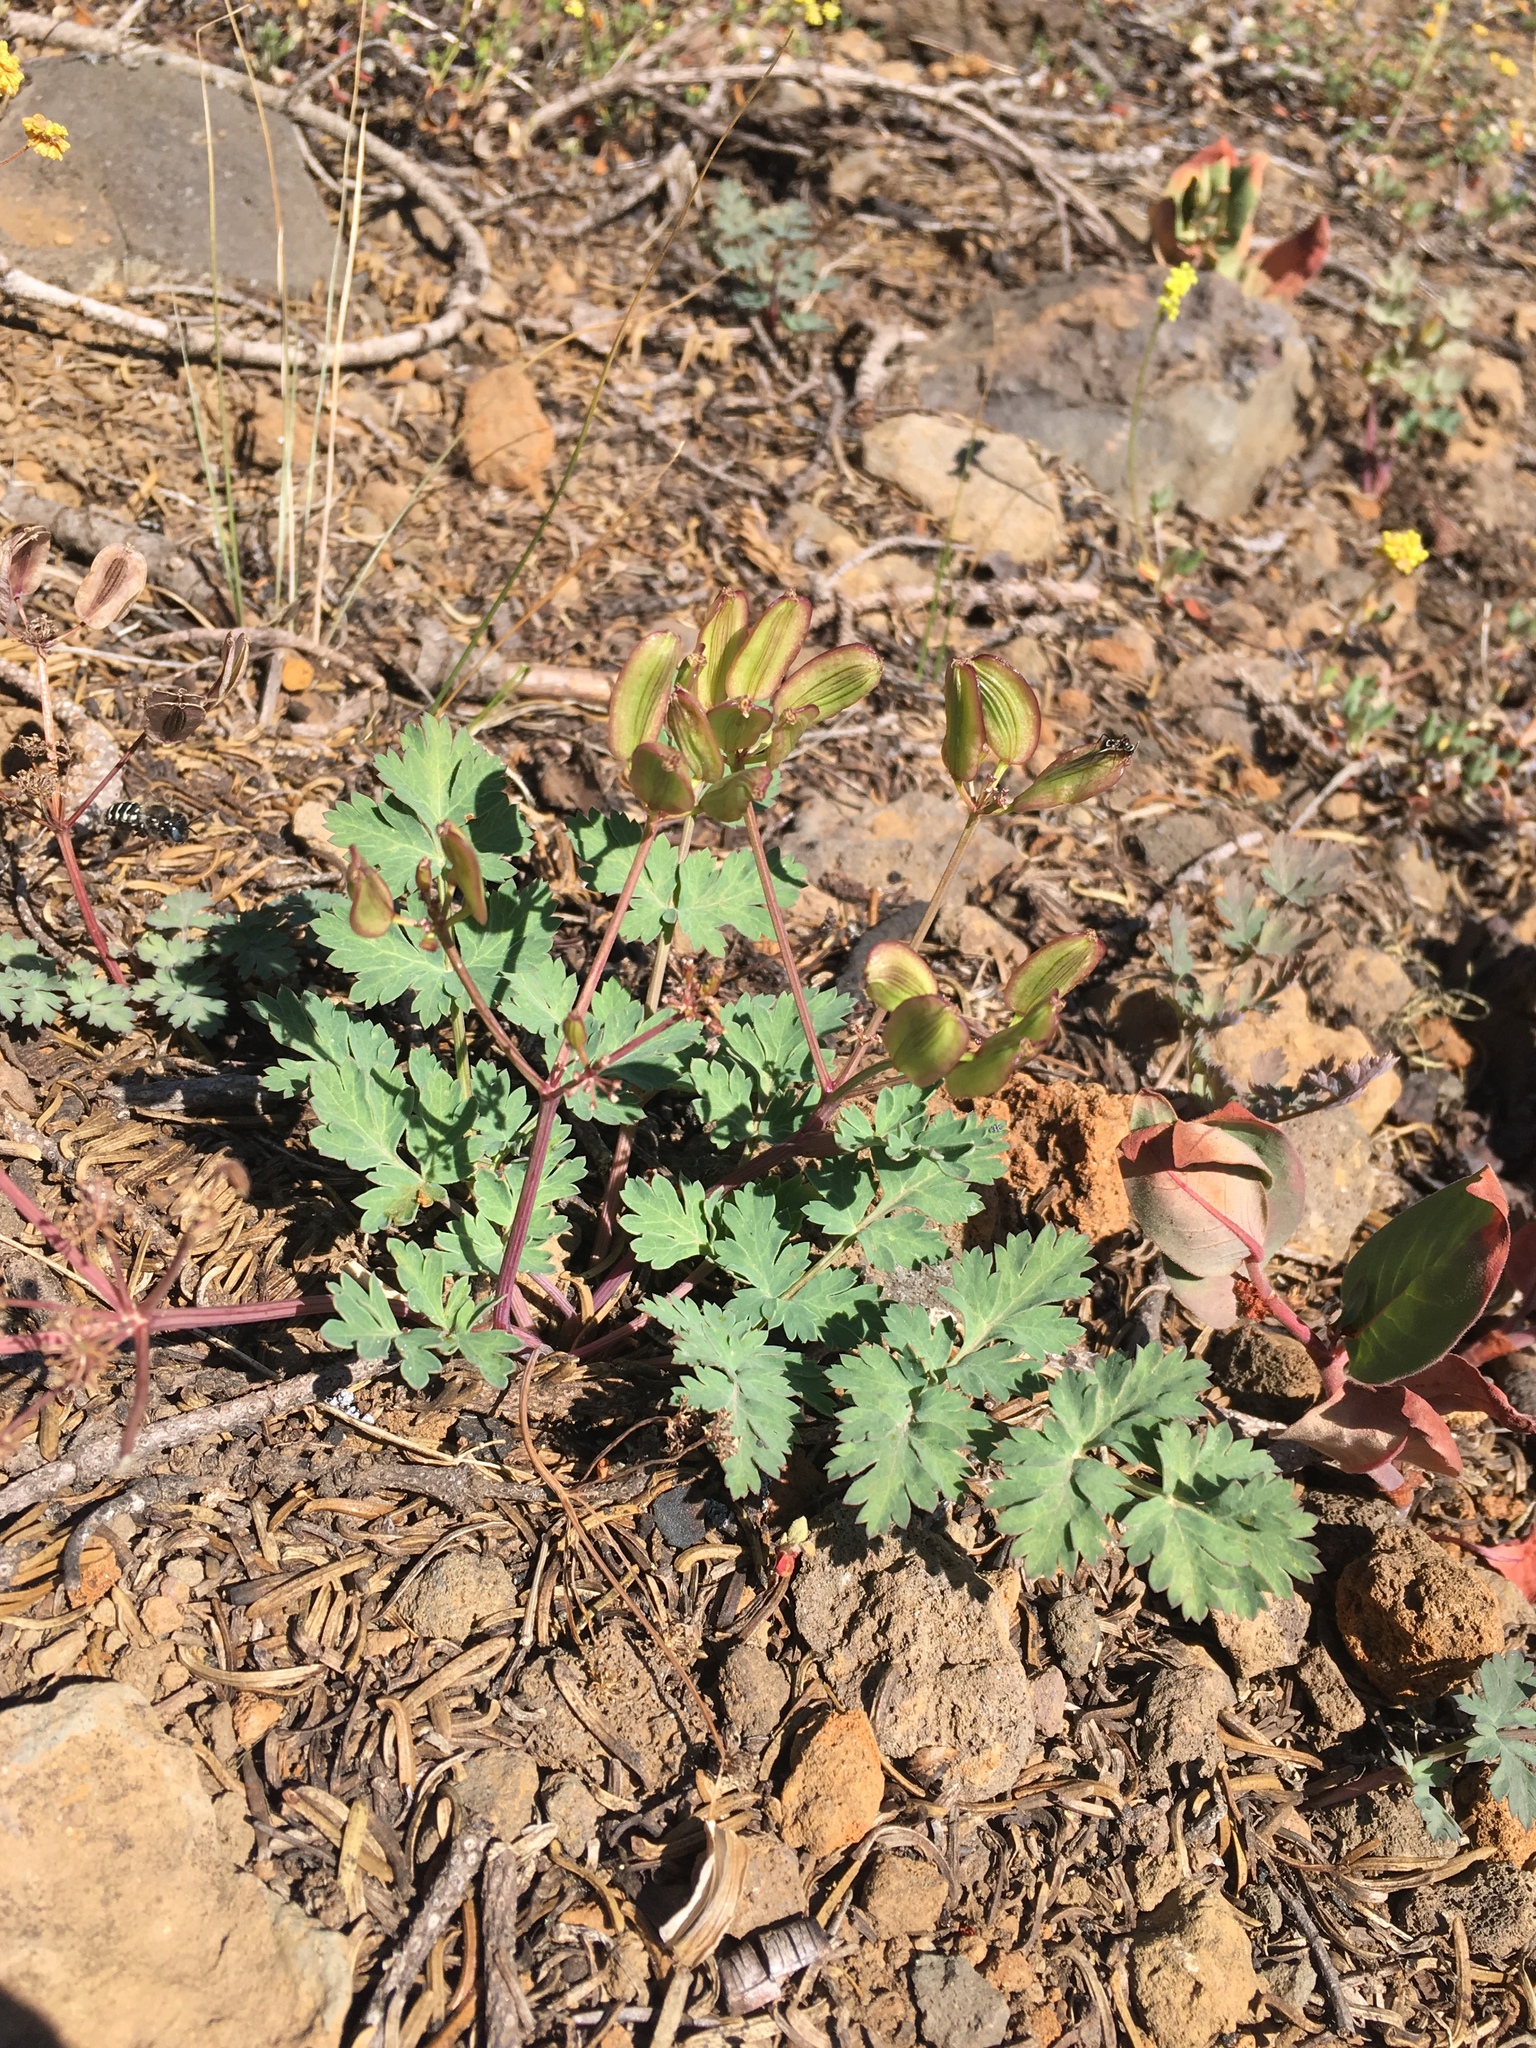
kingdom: Plantae
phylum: Tracheophyta
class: Magnoliopsida
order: Apiales
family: Apiaceae
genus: Lomatium
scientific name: Lomatium martindalei
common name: Cascade desert-parsley
